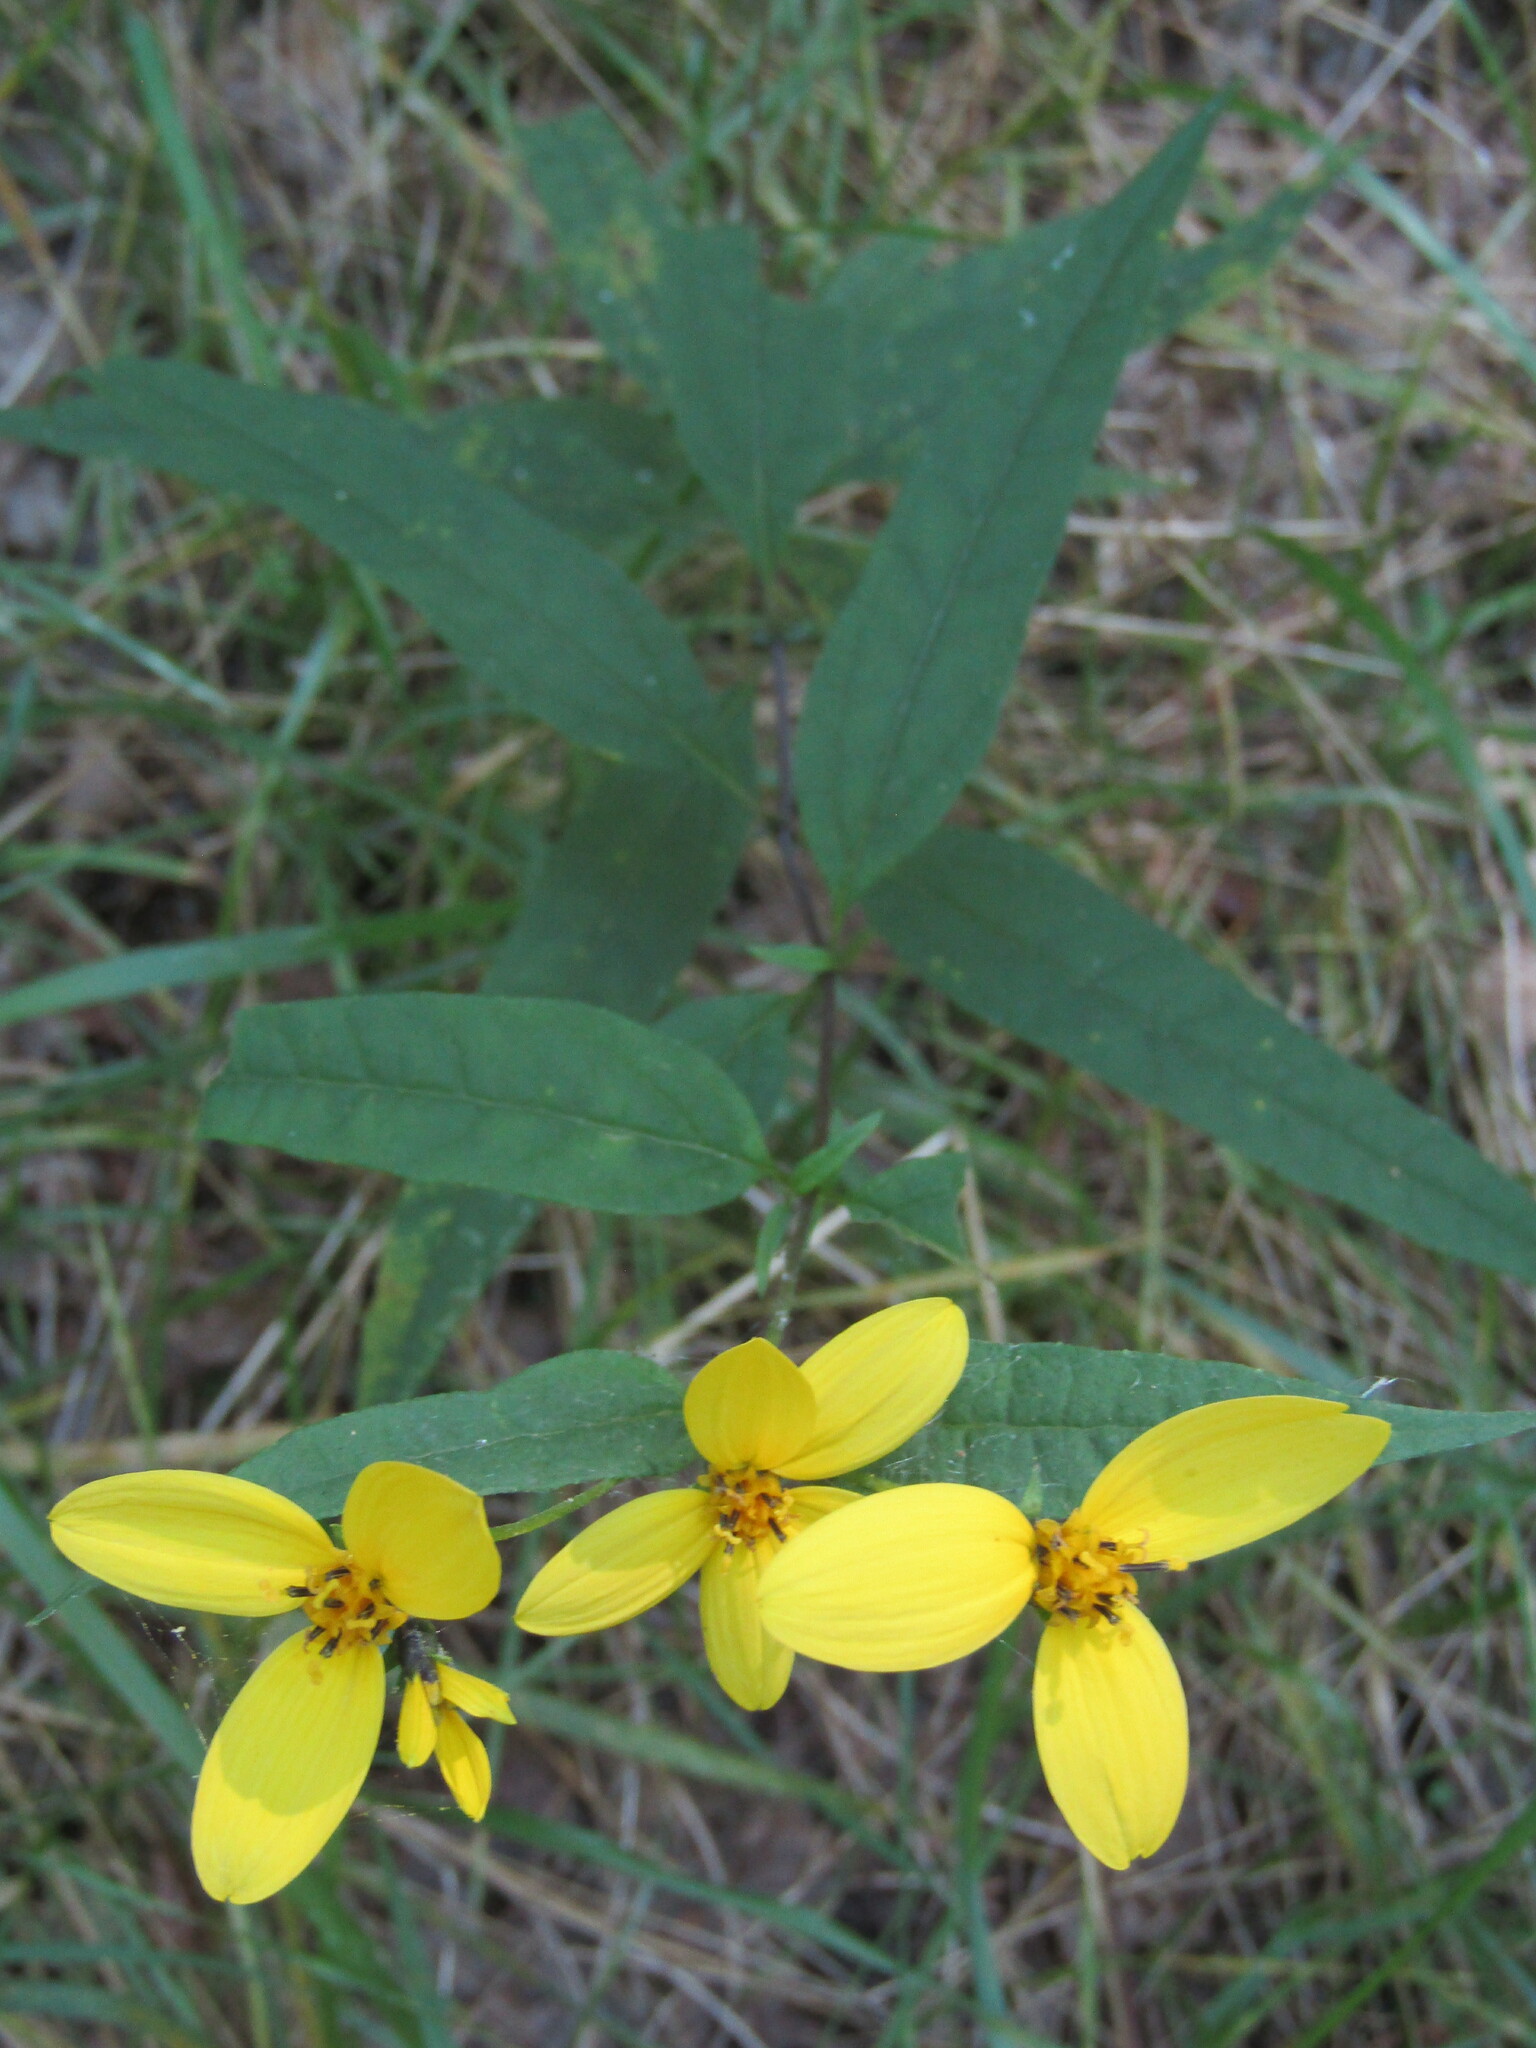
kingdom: Plantae
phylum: Tracheophyta
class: Magnoliopsida
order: Asterales
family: Asteraceae
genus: Helianthus
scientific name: Helianthus microcephalus
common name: Woodland sunflower
